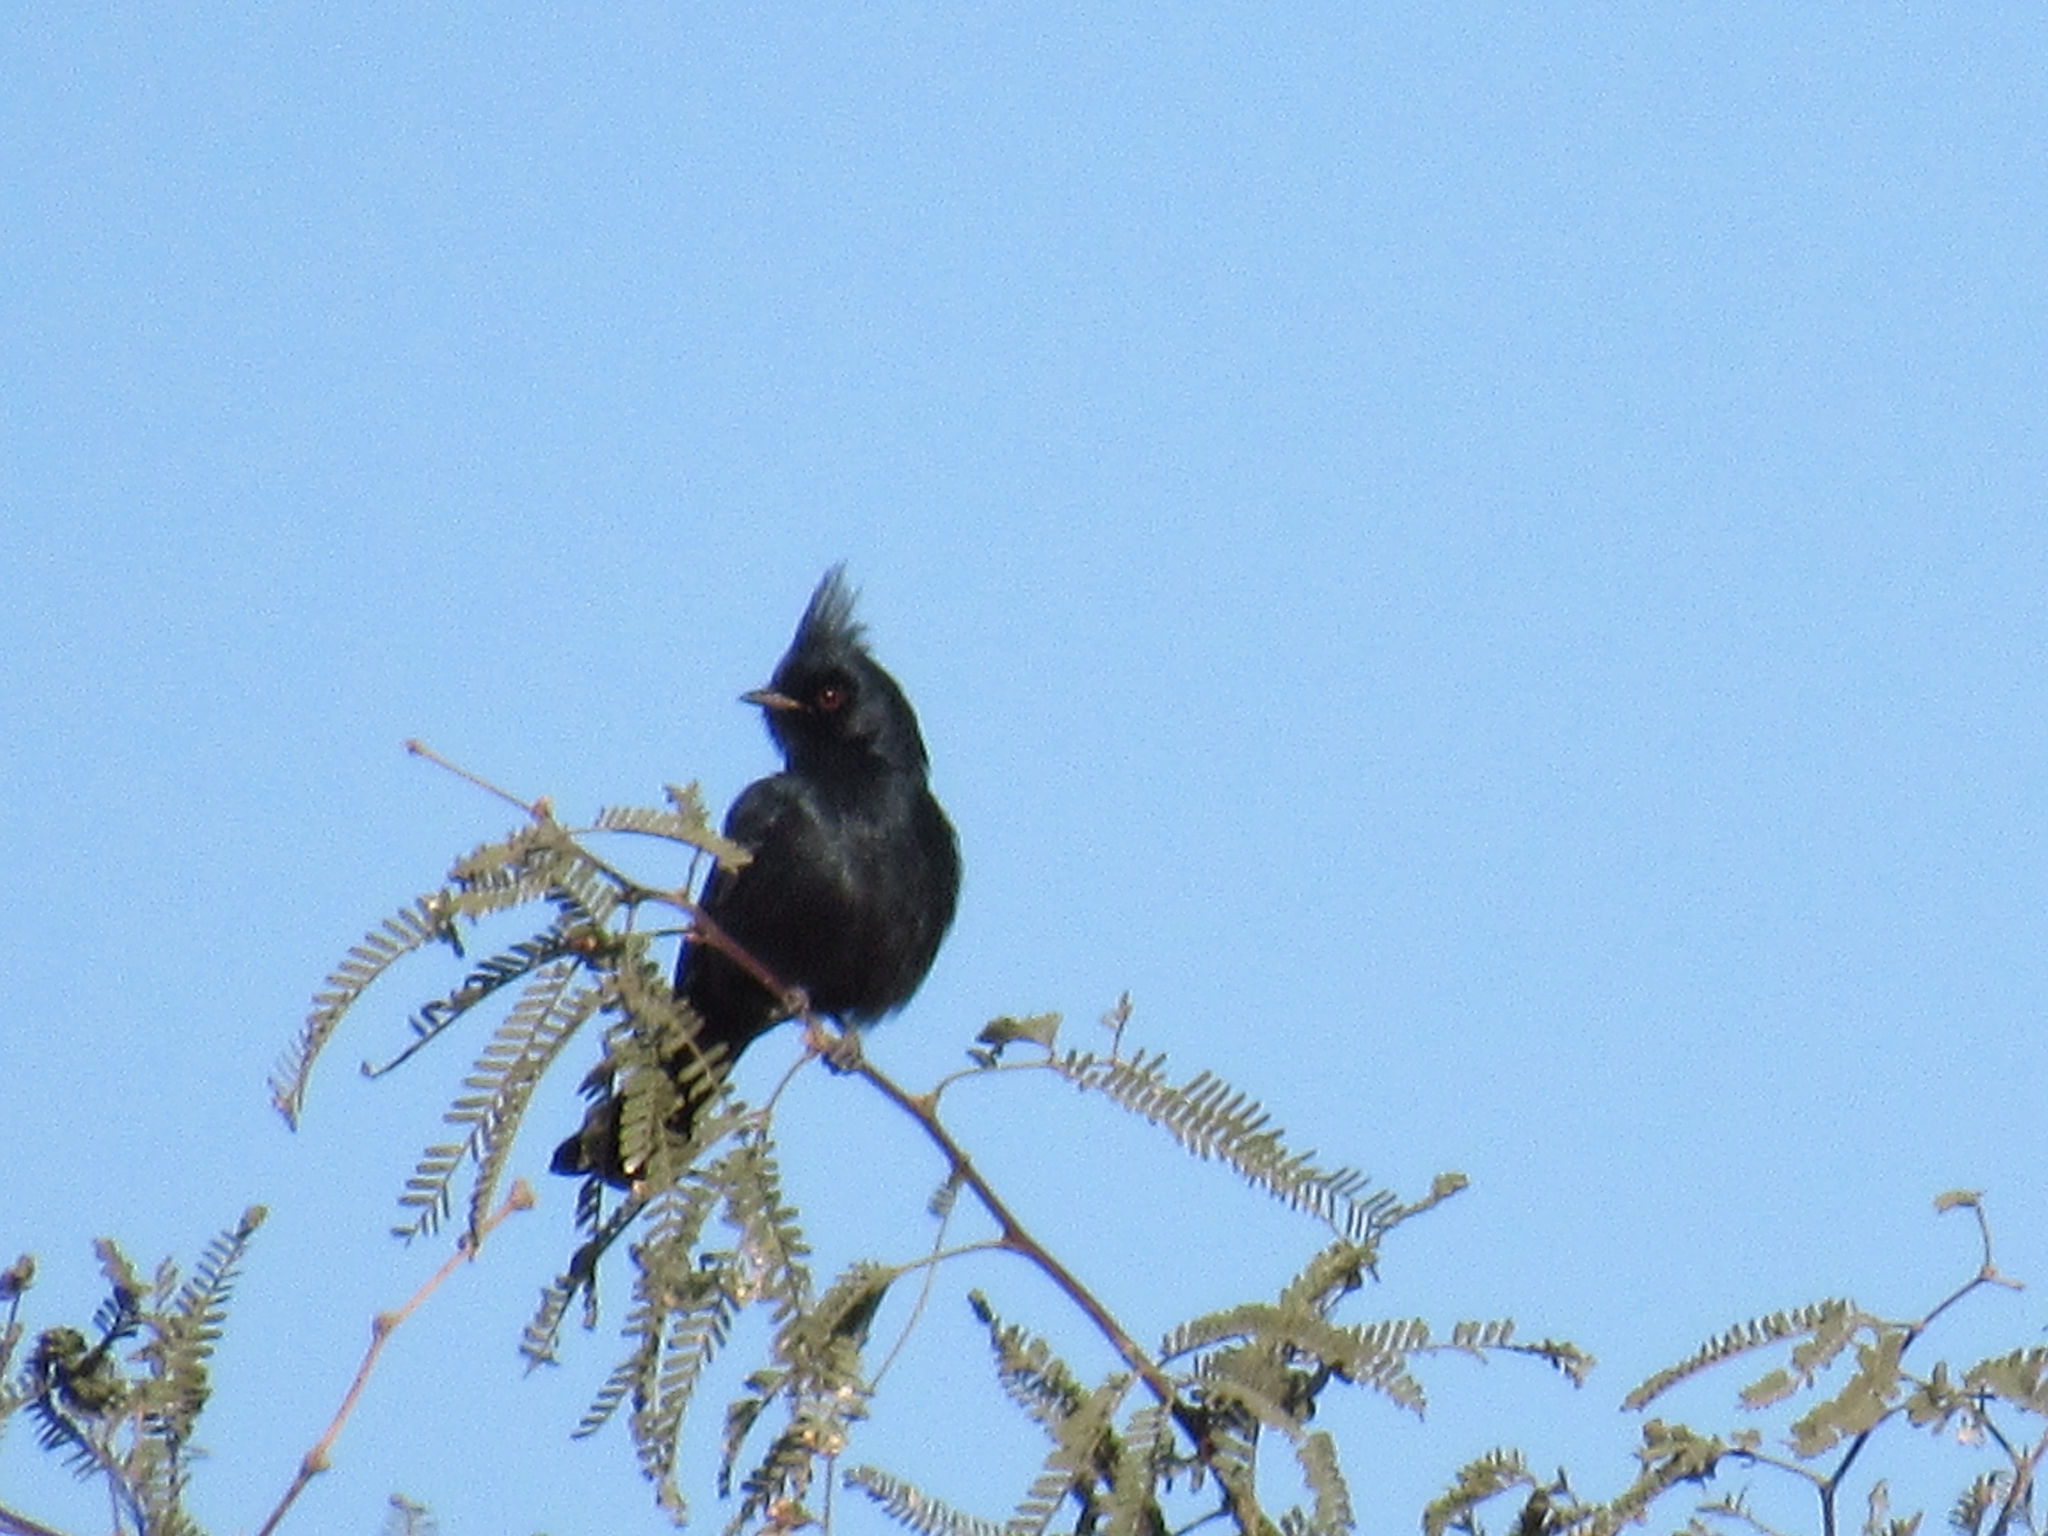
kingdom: Animalia
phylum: Chordata
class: Aves
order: Passeriformes
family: Ptilogonatidae
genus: Phainopepla
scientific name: Phainopepla nitens
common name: Phainopepla
